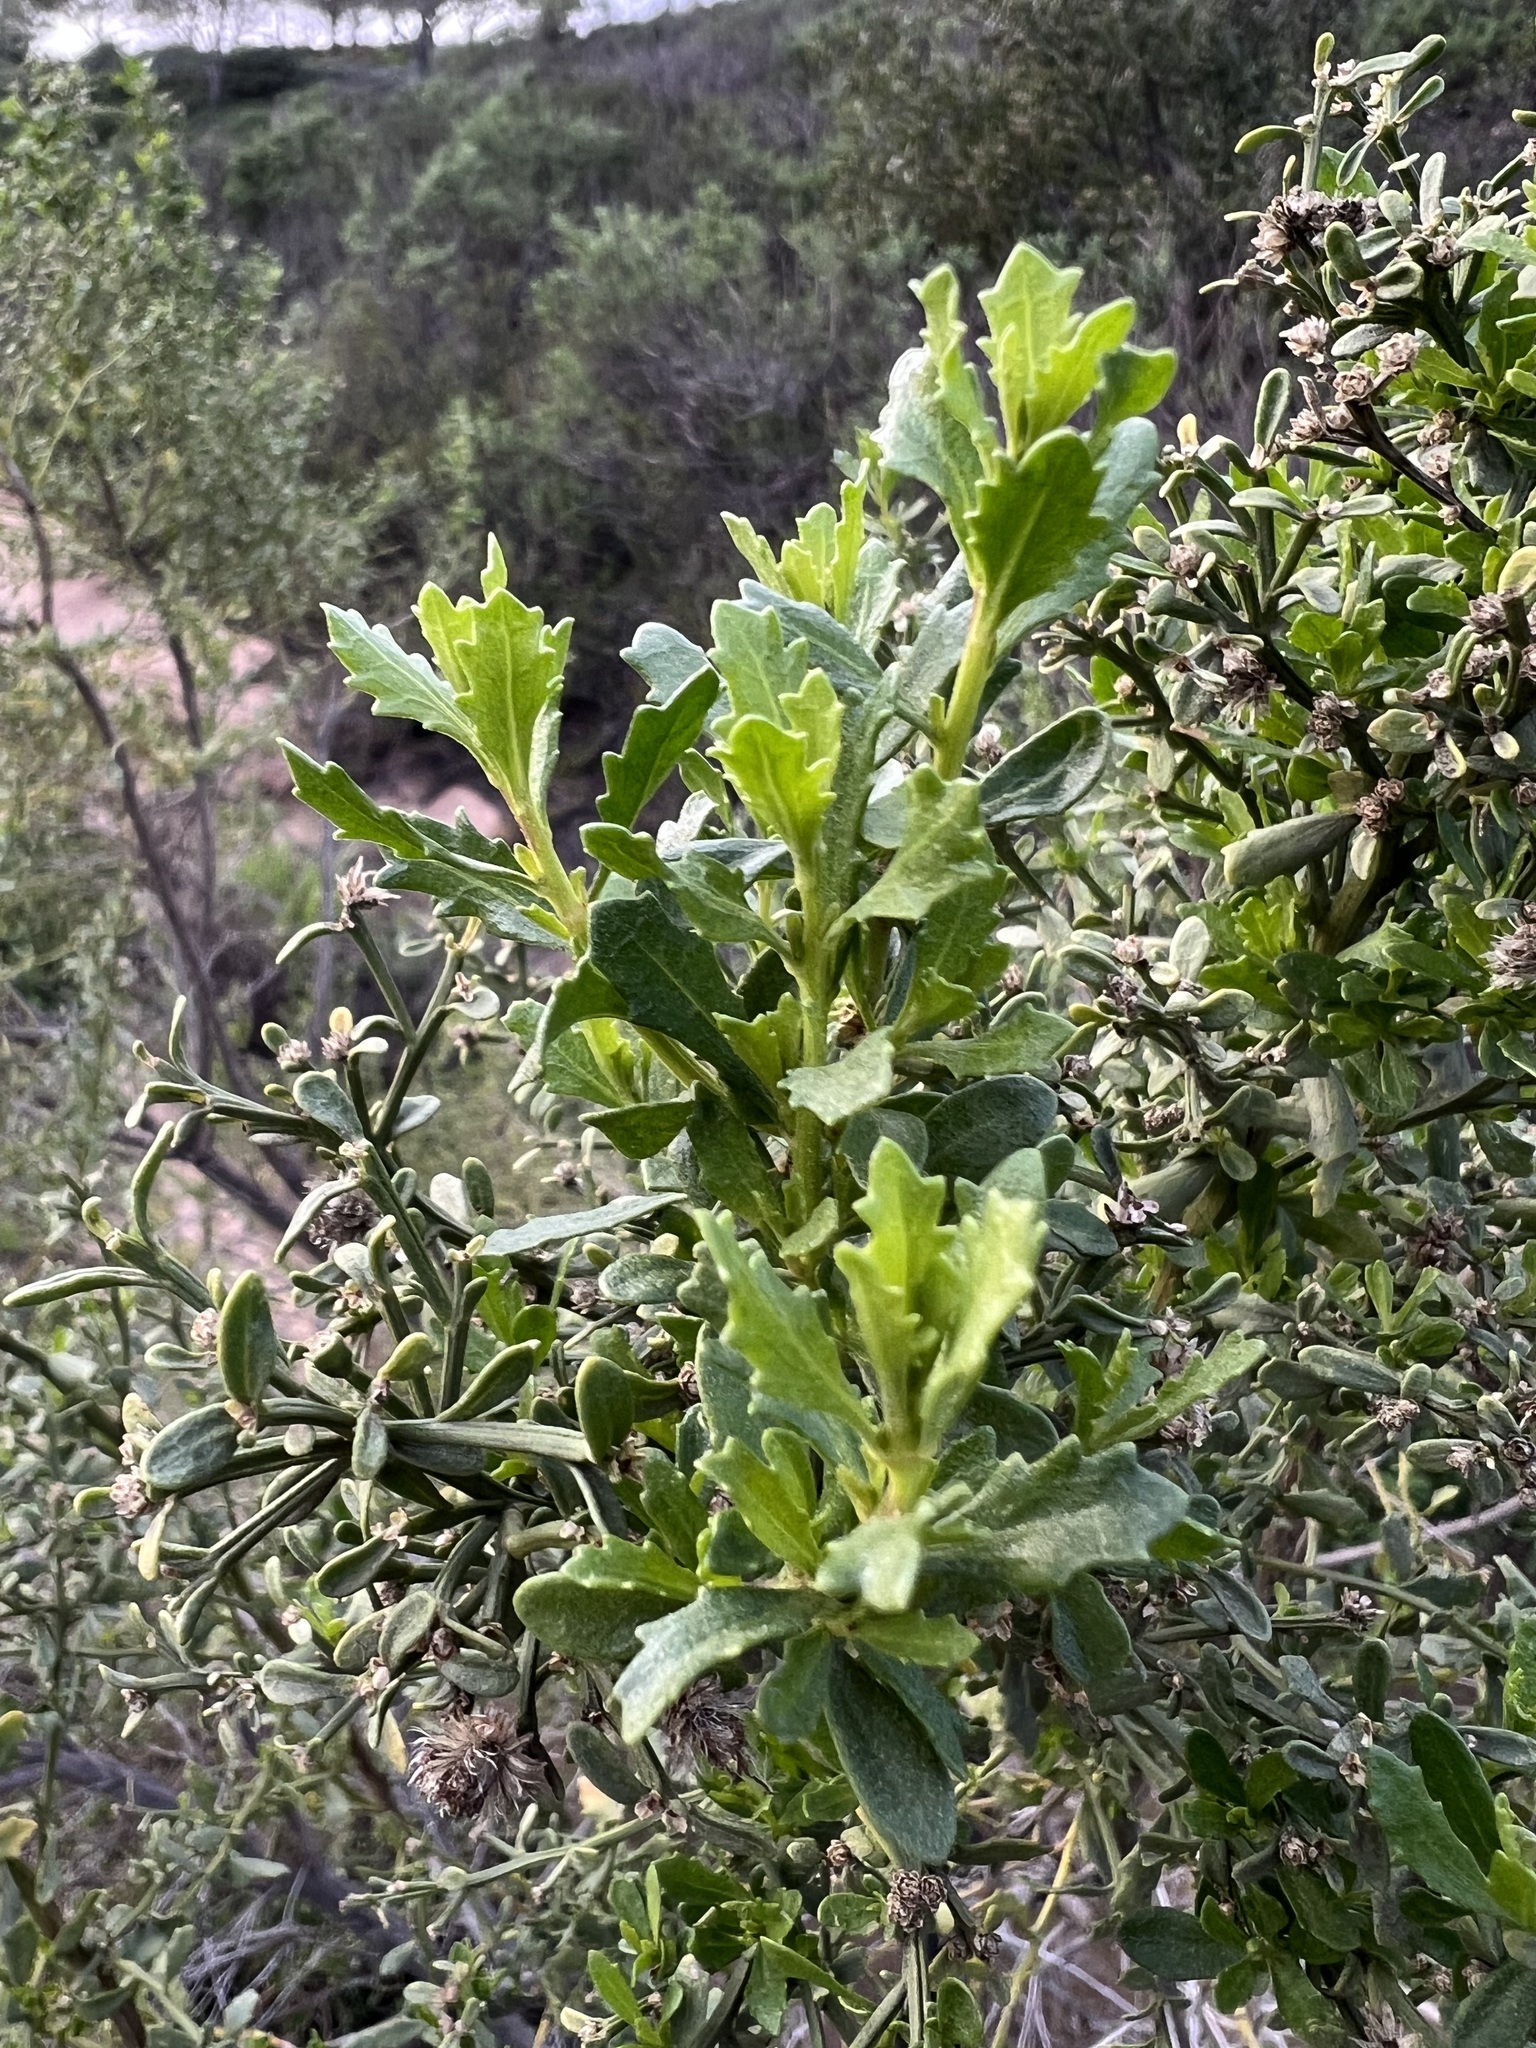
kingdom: Plantae
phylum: Tracheophyta
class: Magnoliopsida
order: Asterales
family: Asteraceae
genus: Baccharis
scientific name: Baccharis pilularis
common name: Coyotebrush
